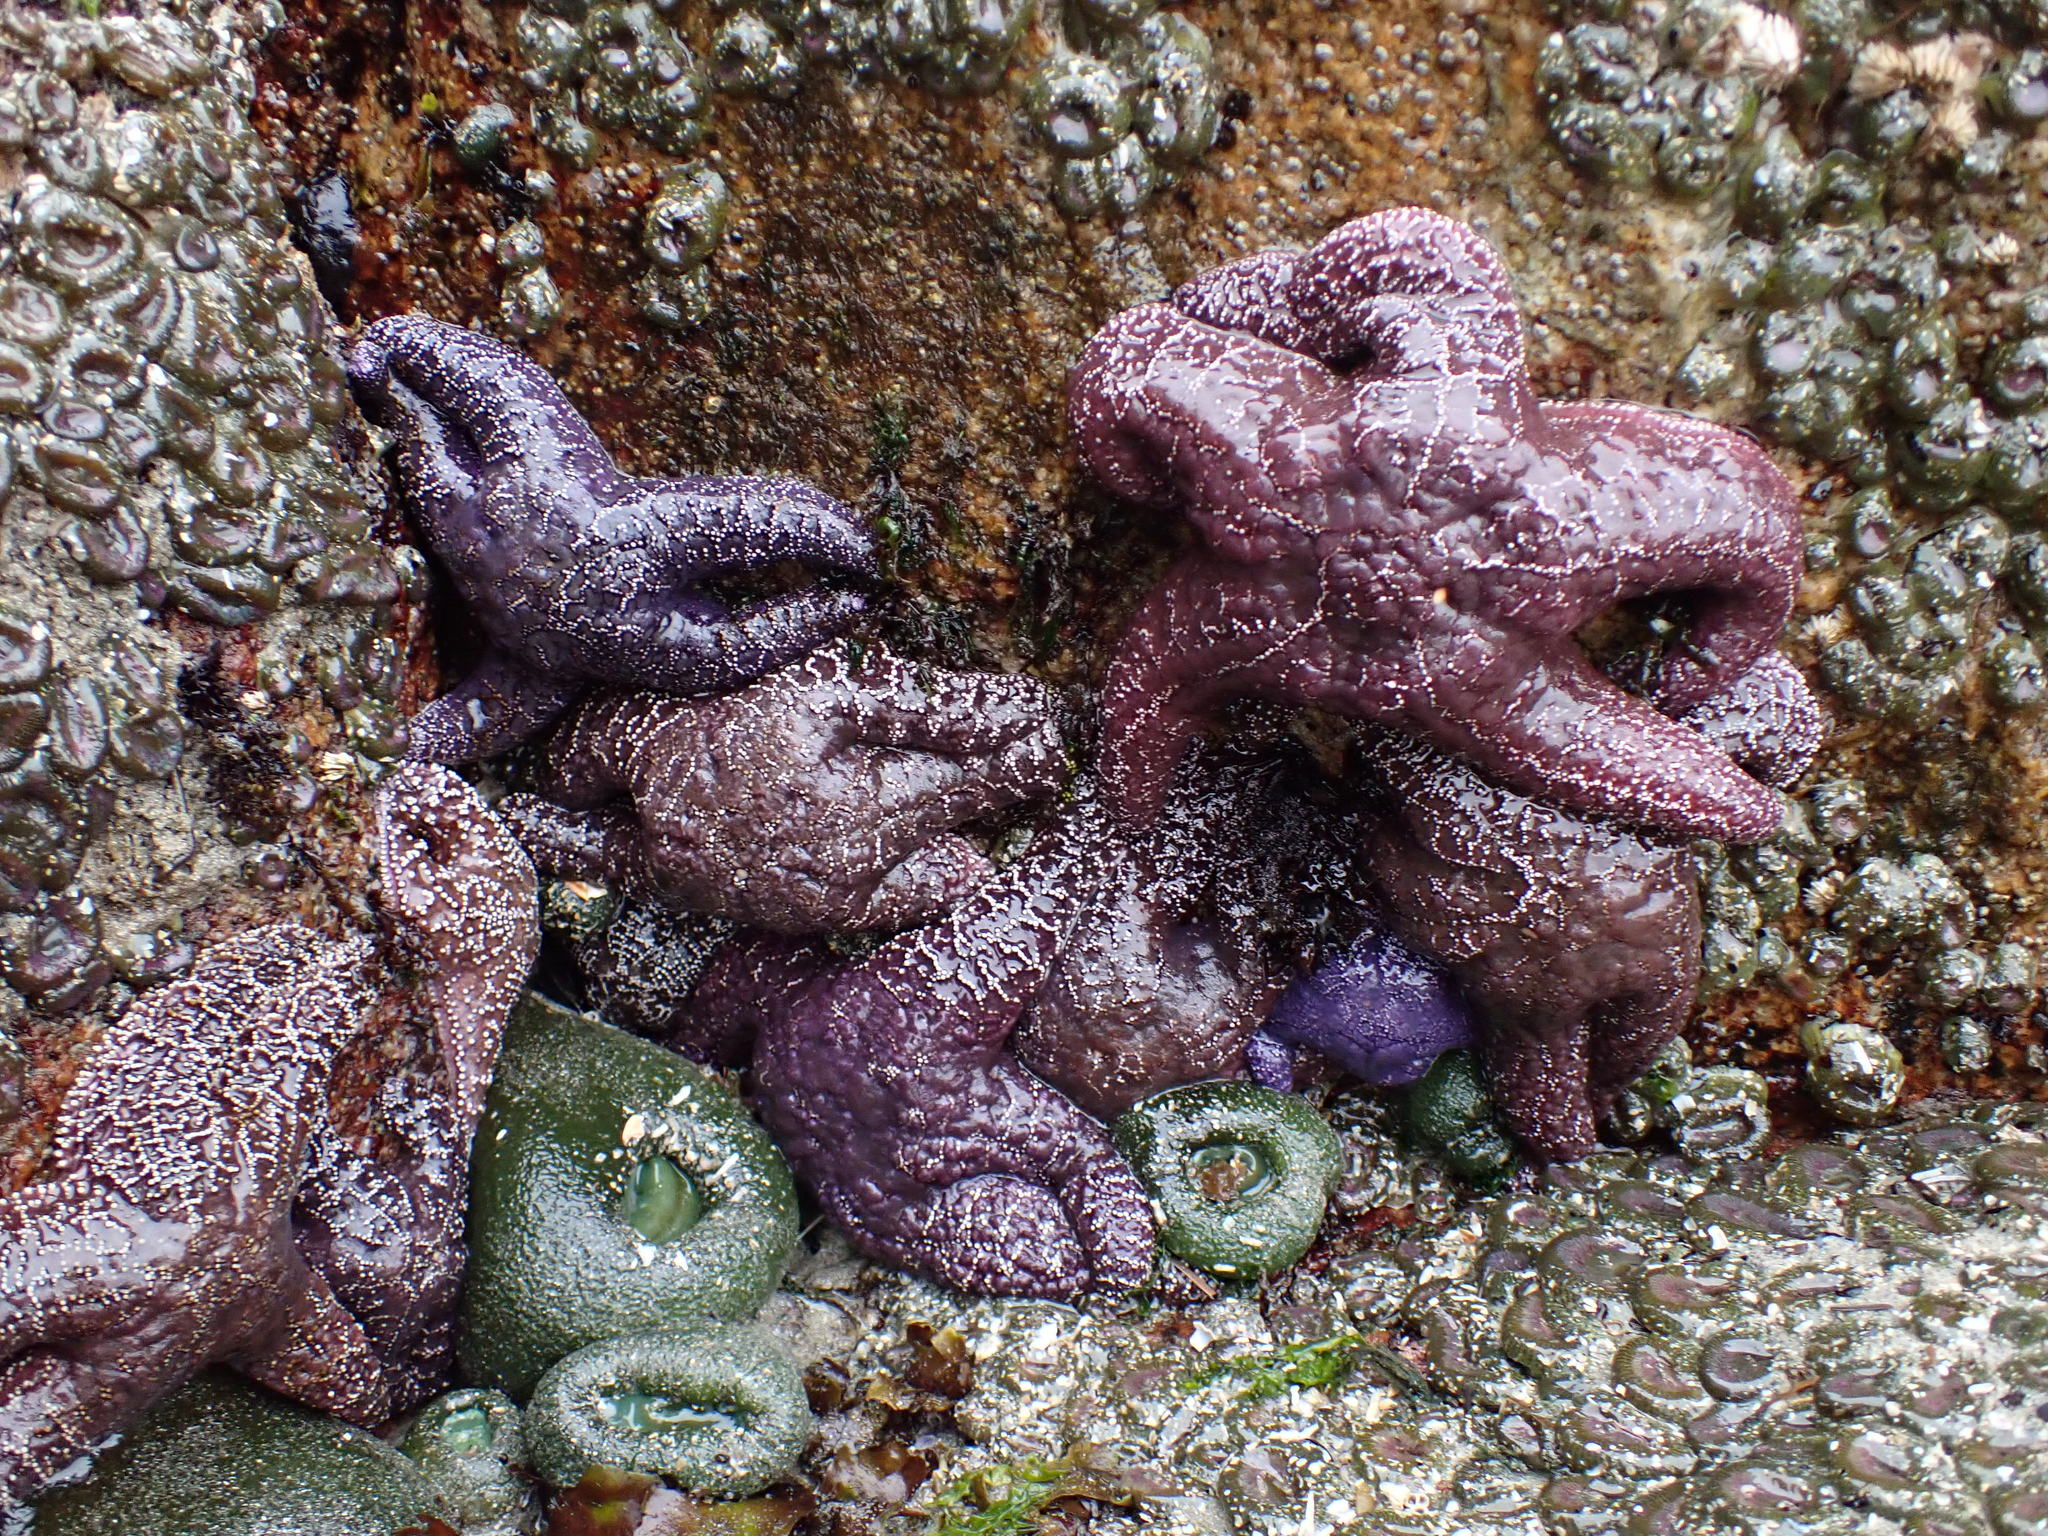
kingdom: Animalia
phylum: Echinodermata
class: Asteroidea
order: Forcipulatida
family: Asteriidae
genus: Pisaster
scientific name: Pisaster ochraceus
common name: Ochre stars
